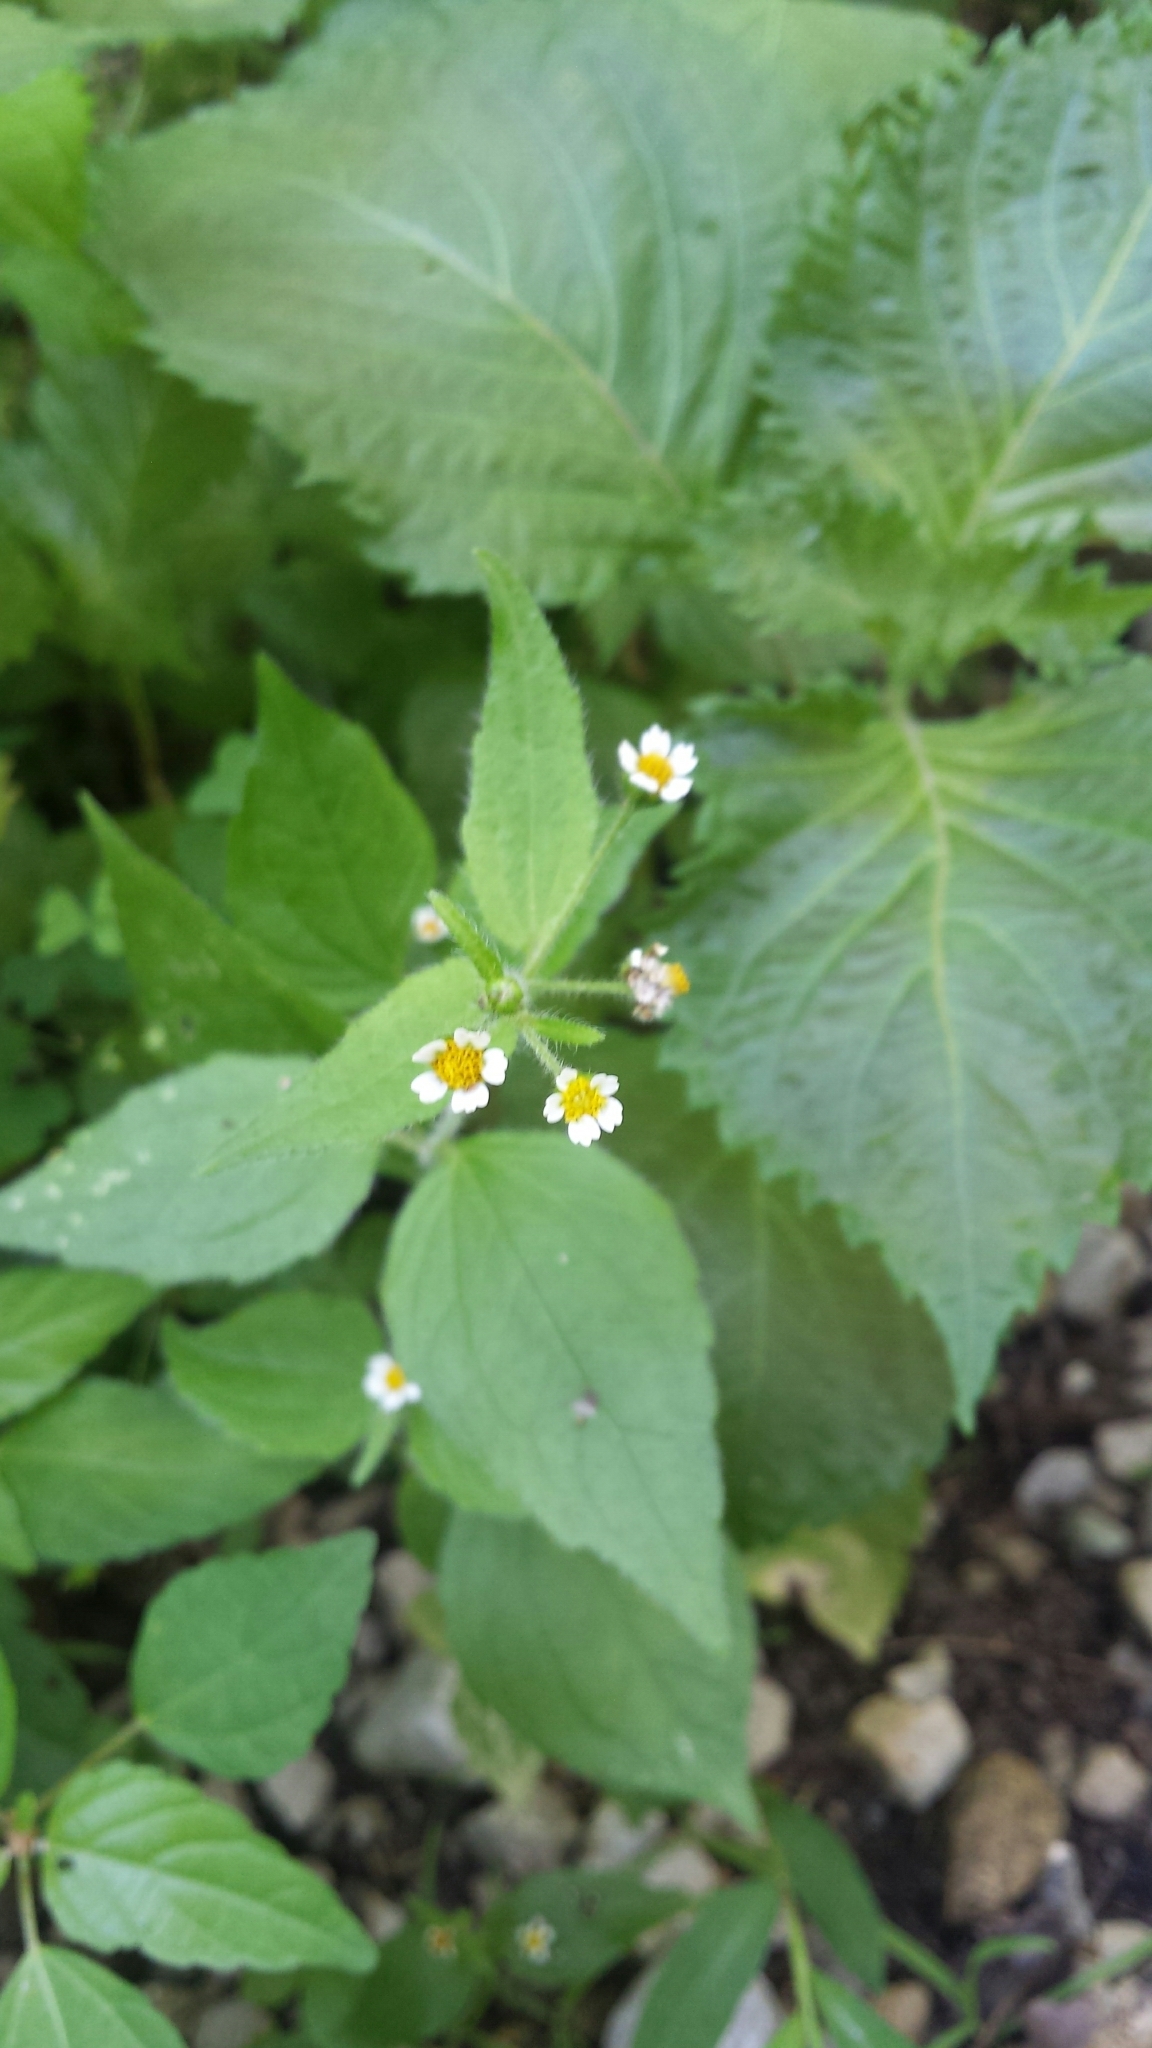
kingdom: Plantae
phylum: Tracheophyta
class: Magnoliopsida
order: Asterales
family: Asteraceae
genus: Galinsoga
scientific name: Galinsoga quadriradiata
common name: Shaggy soldier
